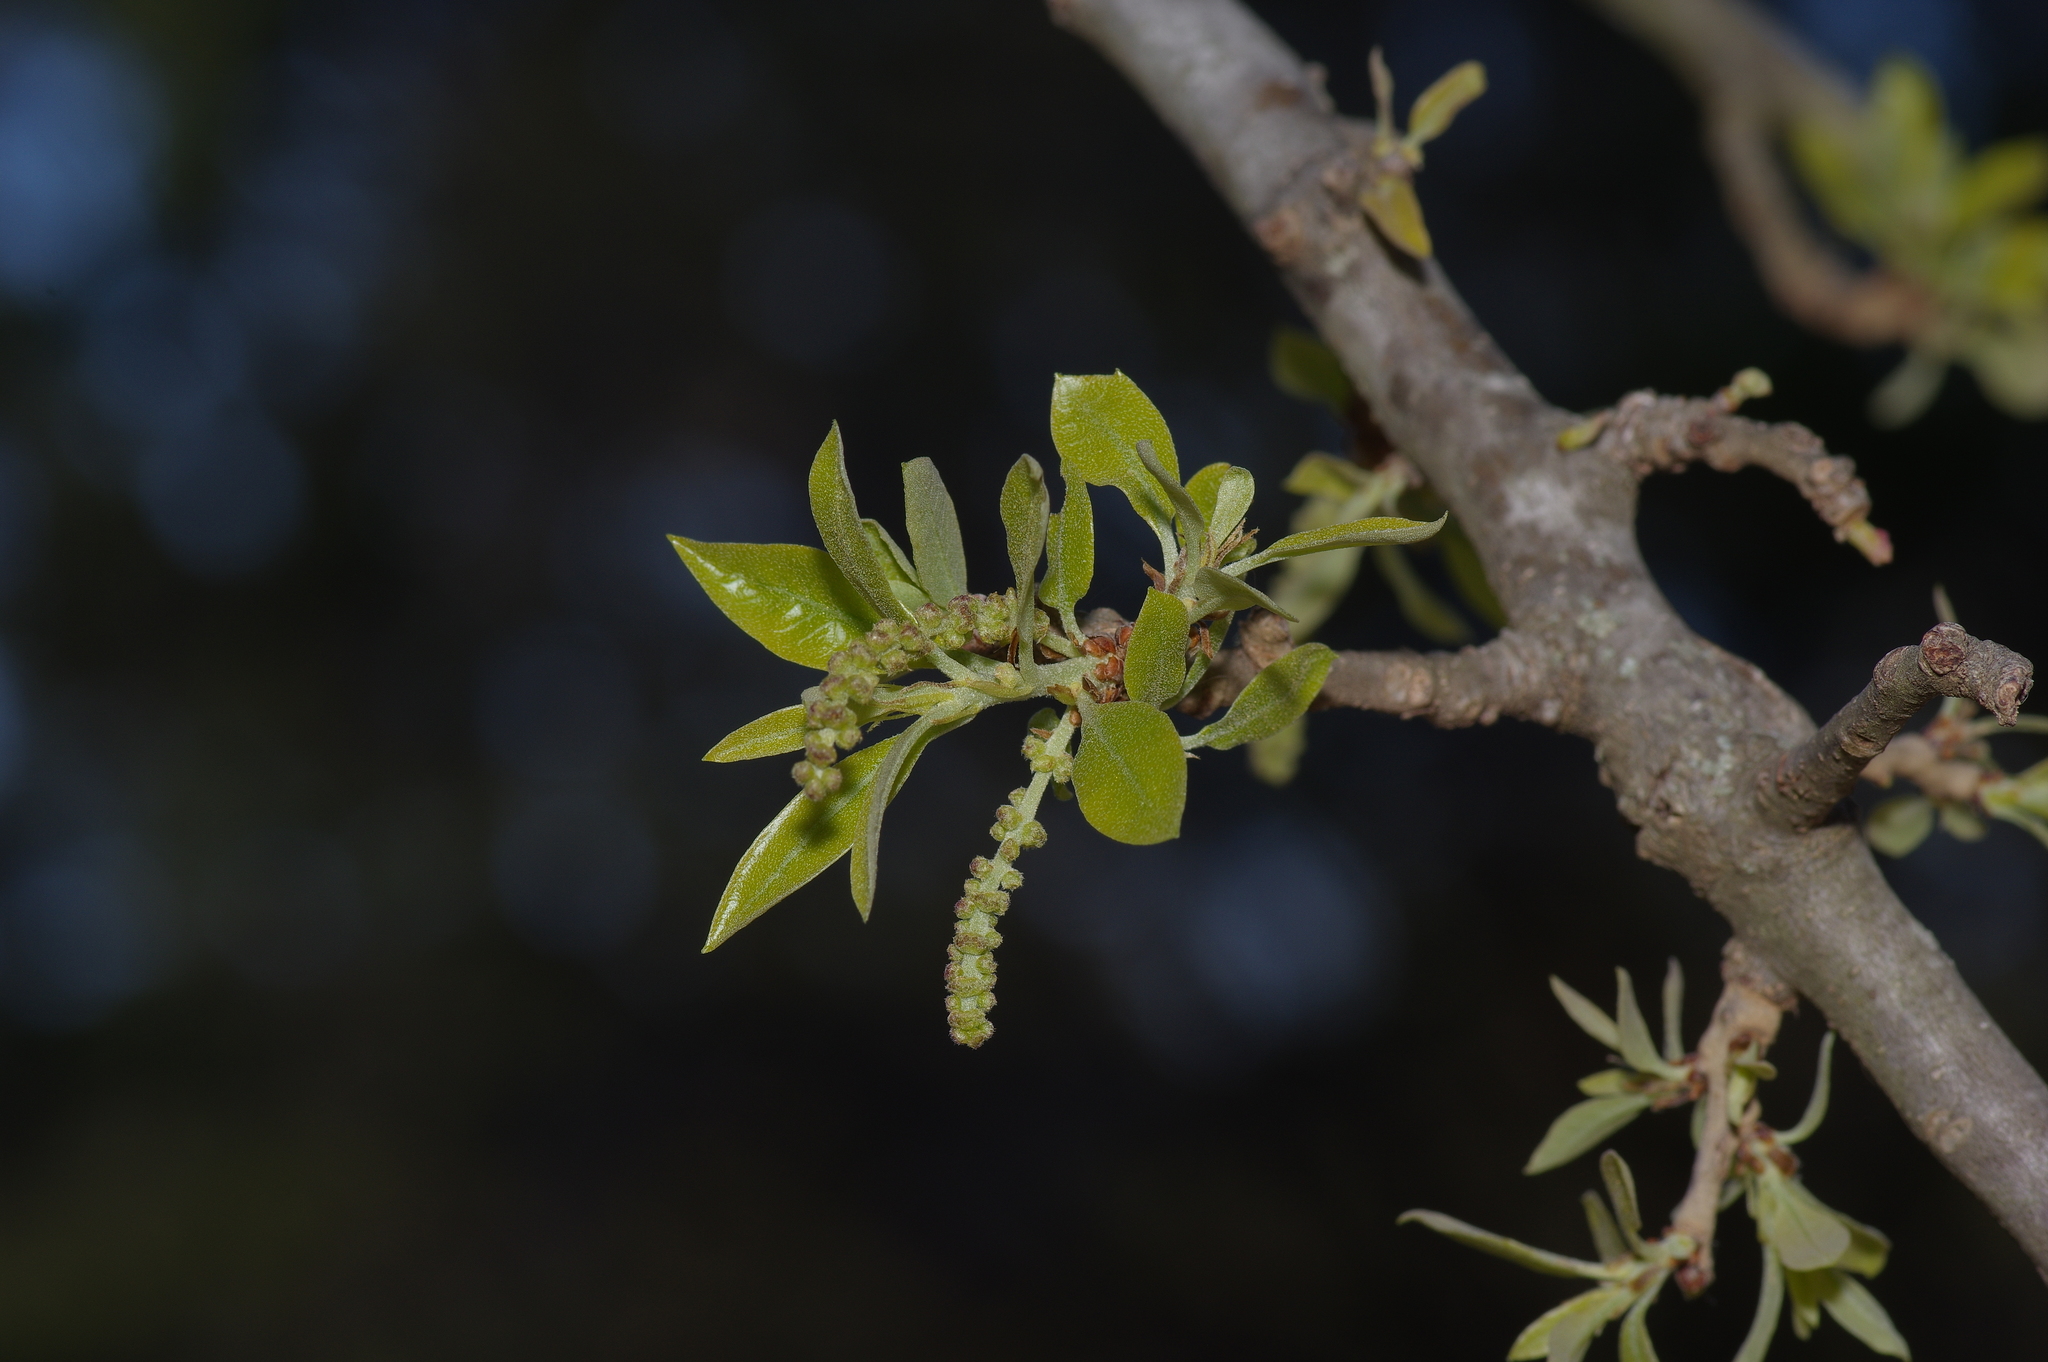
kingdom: Plantae
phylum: Tracheophyta
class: Magnoliopsida
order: Fagales
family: Fagaceae
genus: Quercus
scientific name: Quercus
